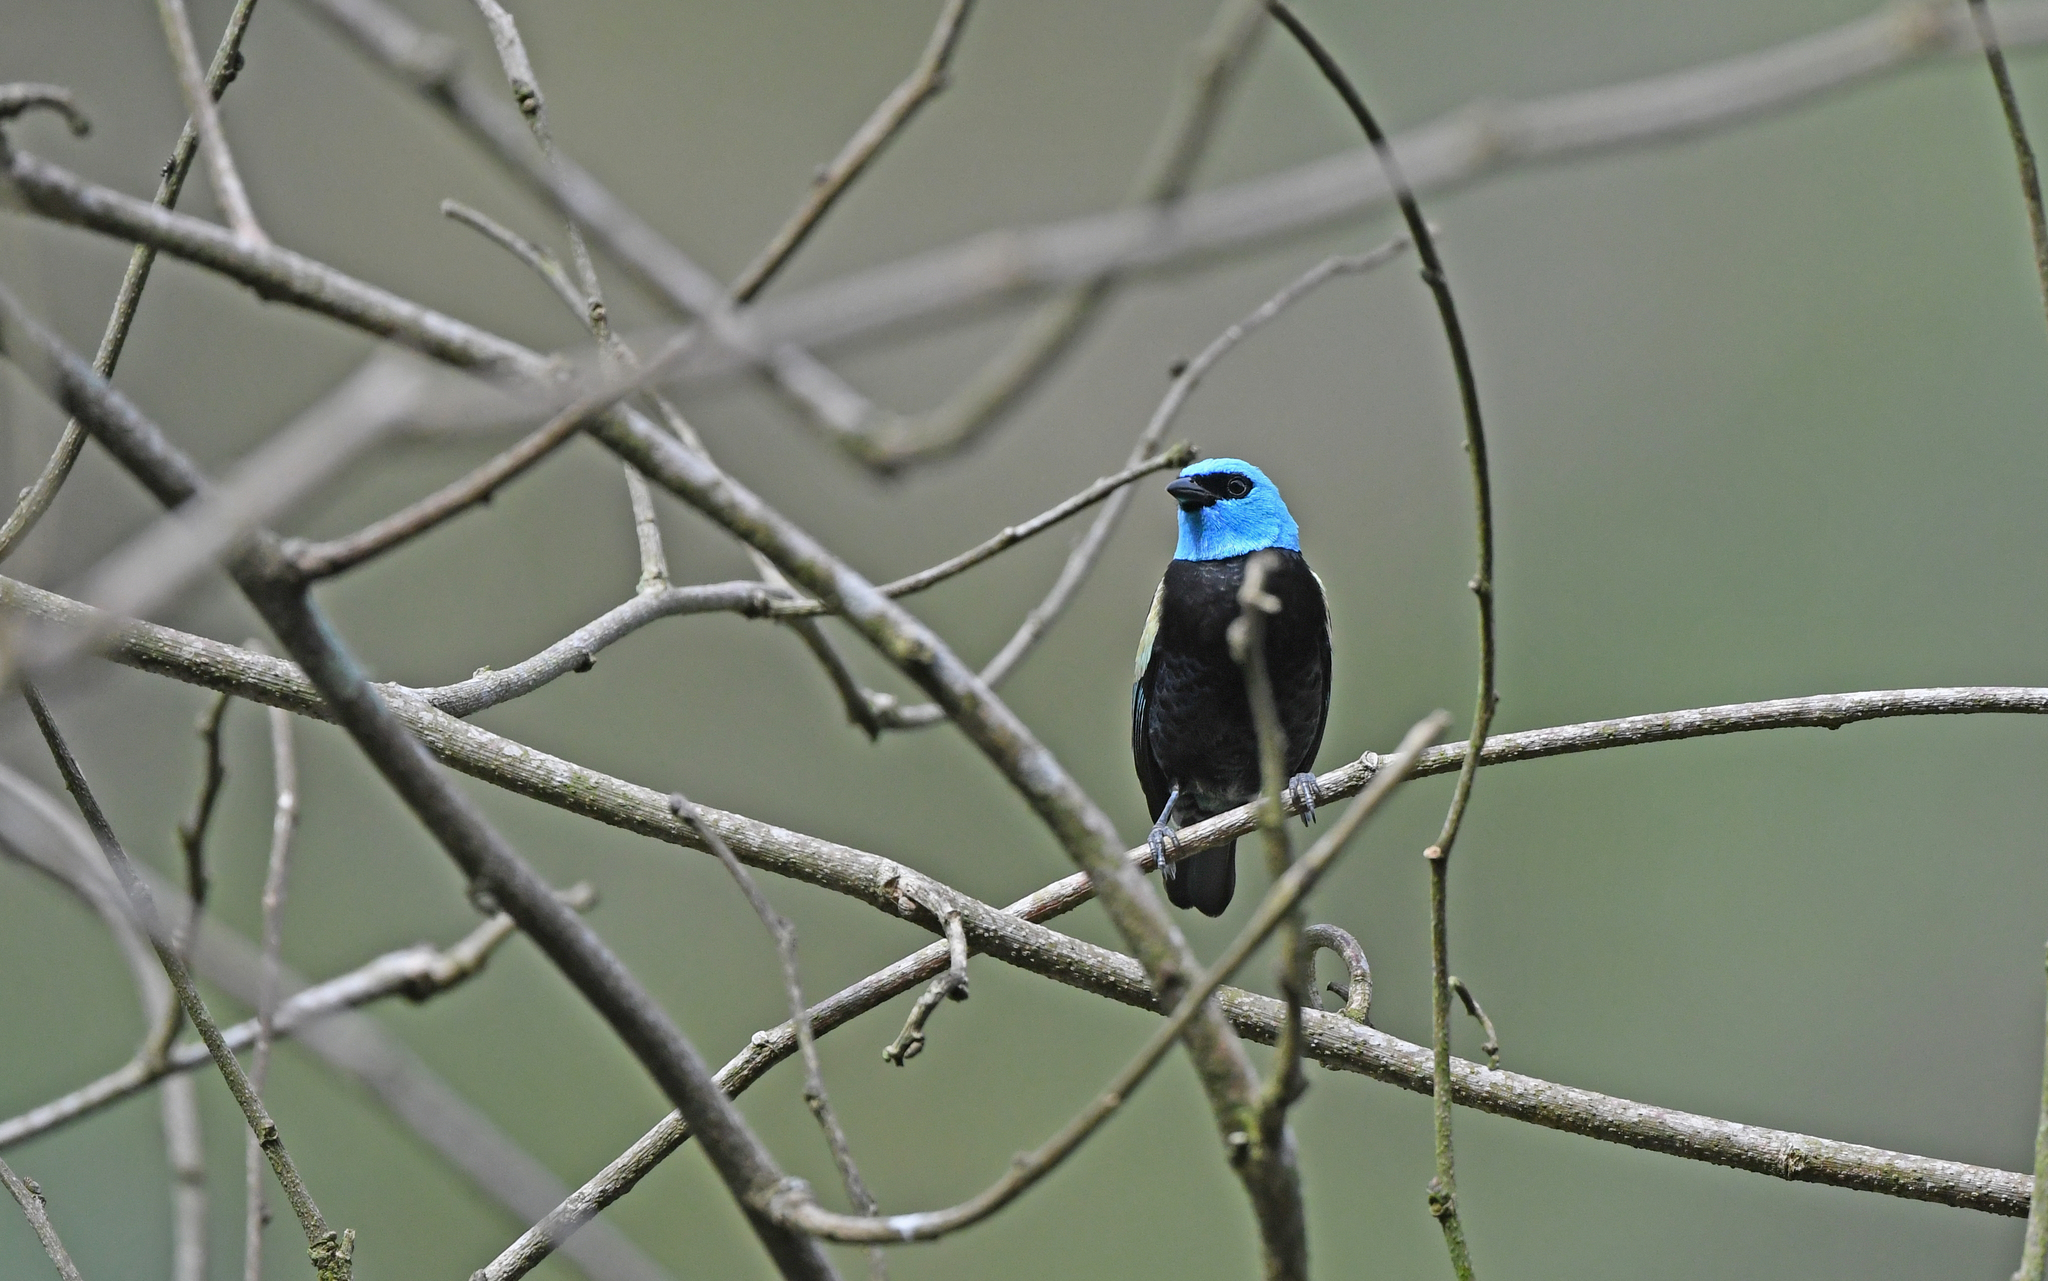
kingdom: Animalia
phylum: Chordata
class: Aves
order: Passeriformes
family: Thraupidae
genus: Stilpnia
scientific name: Stilpnia cyanicollis
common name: Blue-necked tanager
